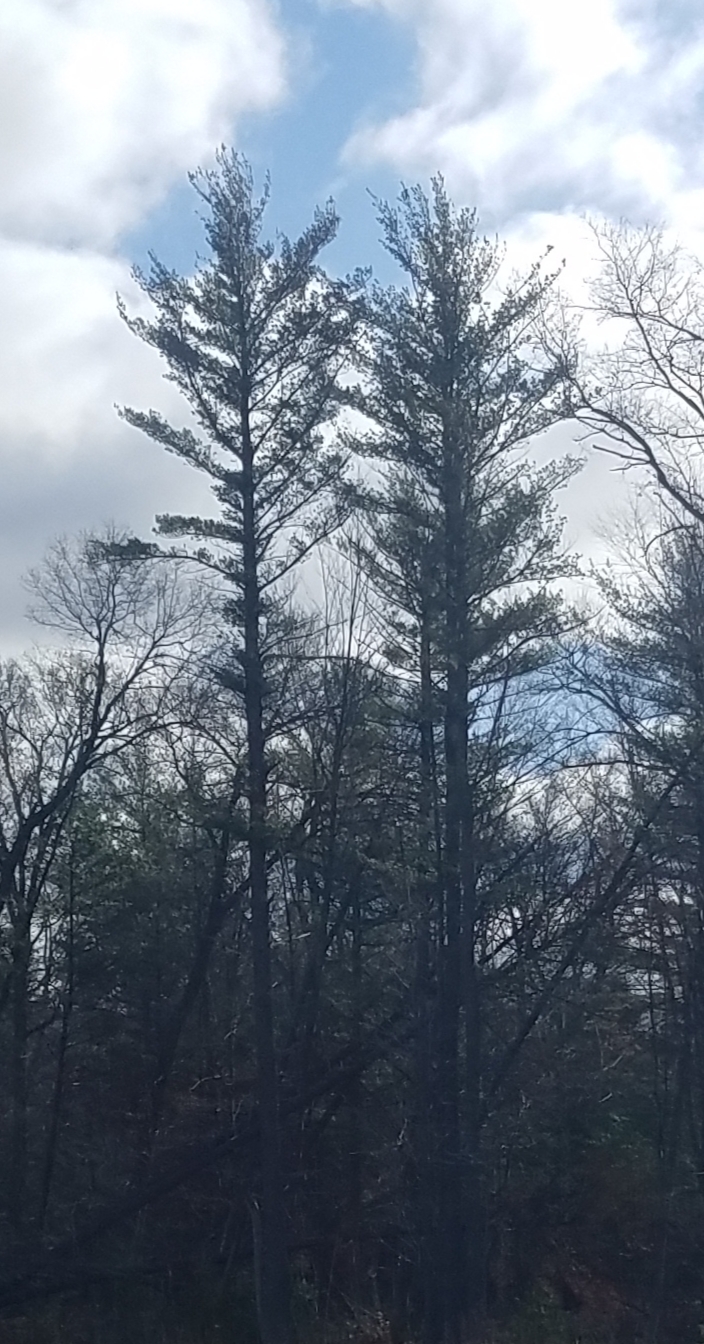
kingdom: Plantae
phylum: Tracheophyta
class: Pinopsida
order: Pinales
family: Pinaceae
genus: Pinus
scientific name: Pinus strobus
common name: Weymouth pine
